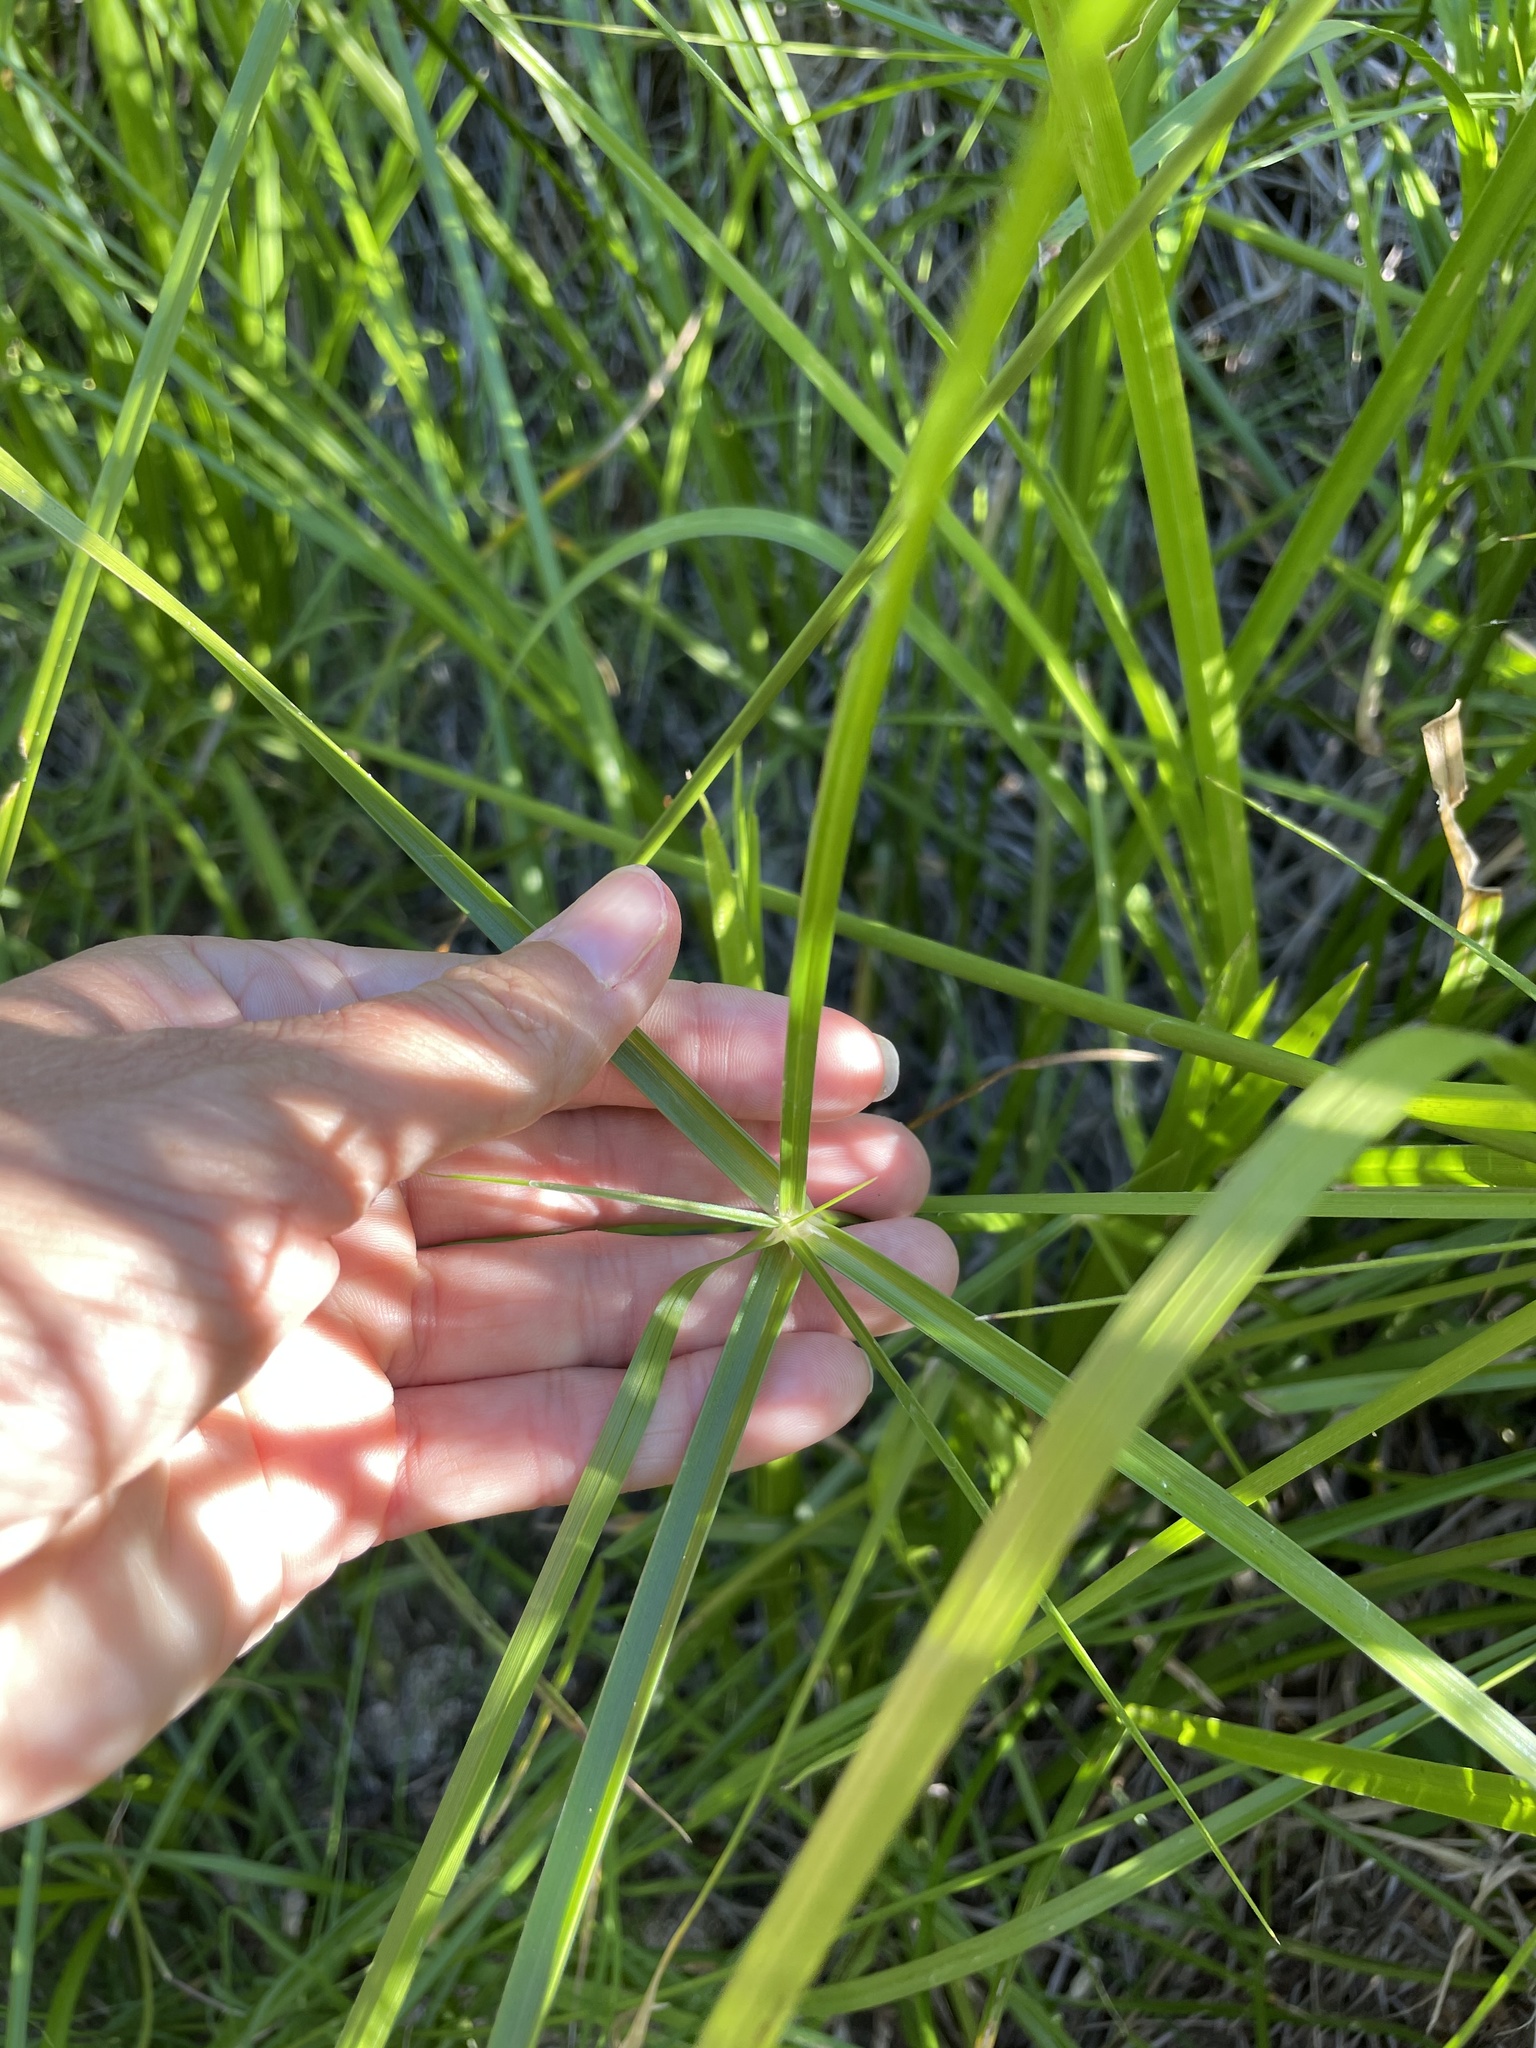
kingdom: Plantae
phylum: Tracheophyta
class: Liliopsida
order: Poales
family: Cyperaceae
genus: Cyperus
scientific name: Cyperus dioicus
